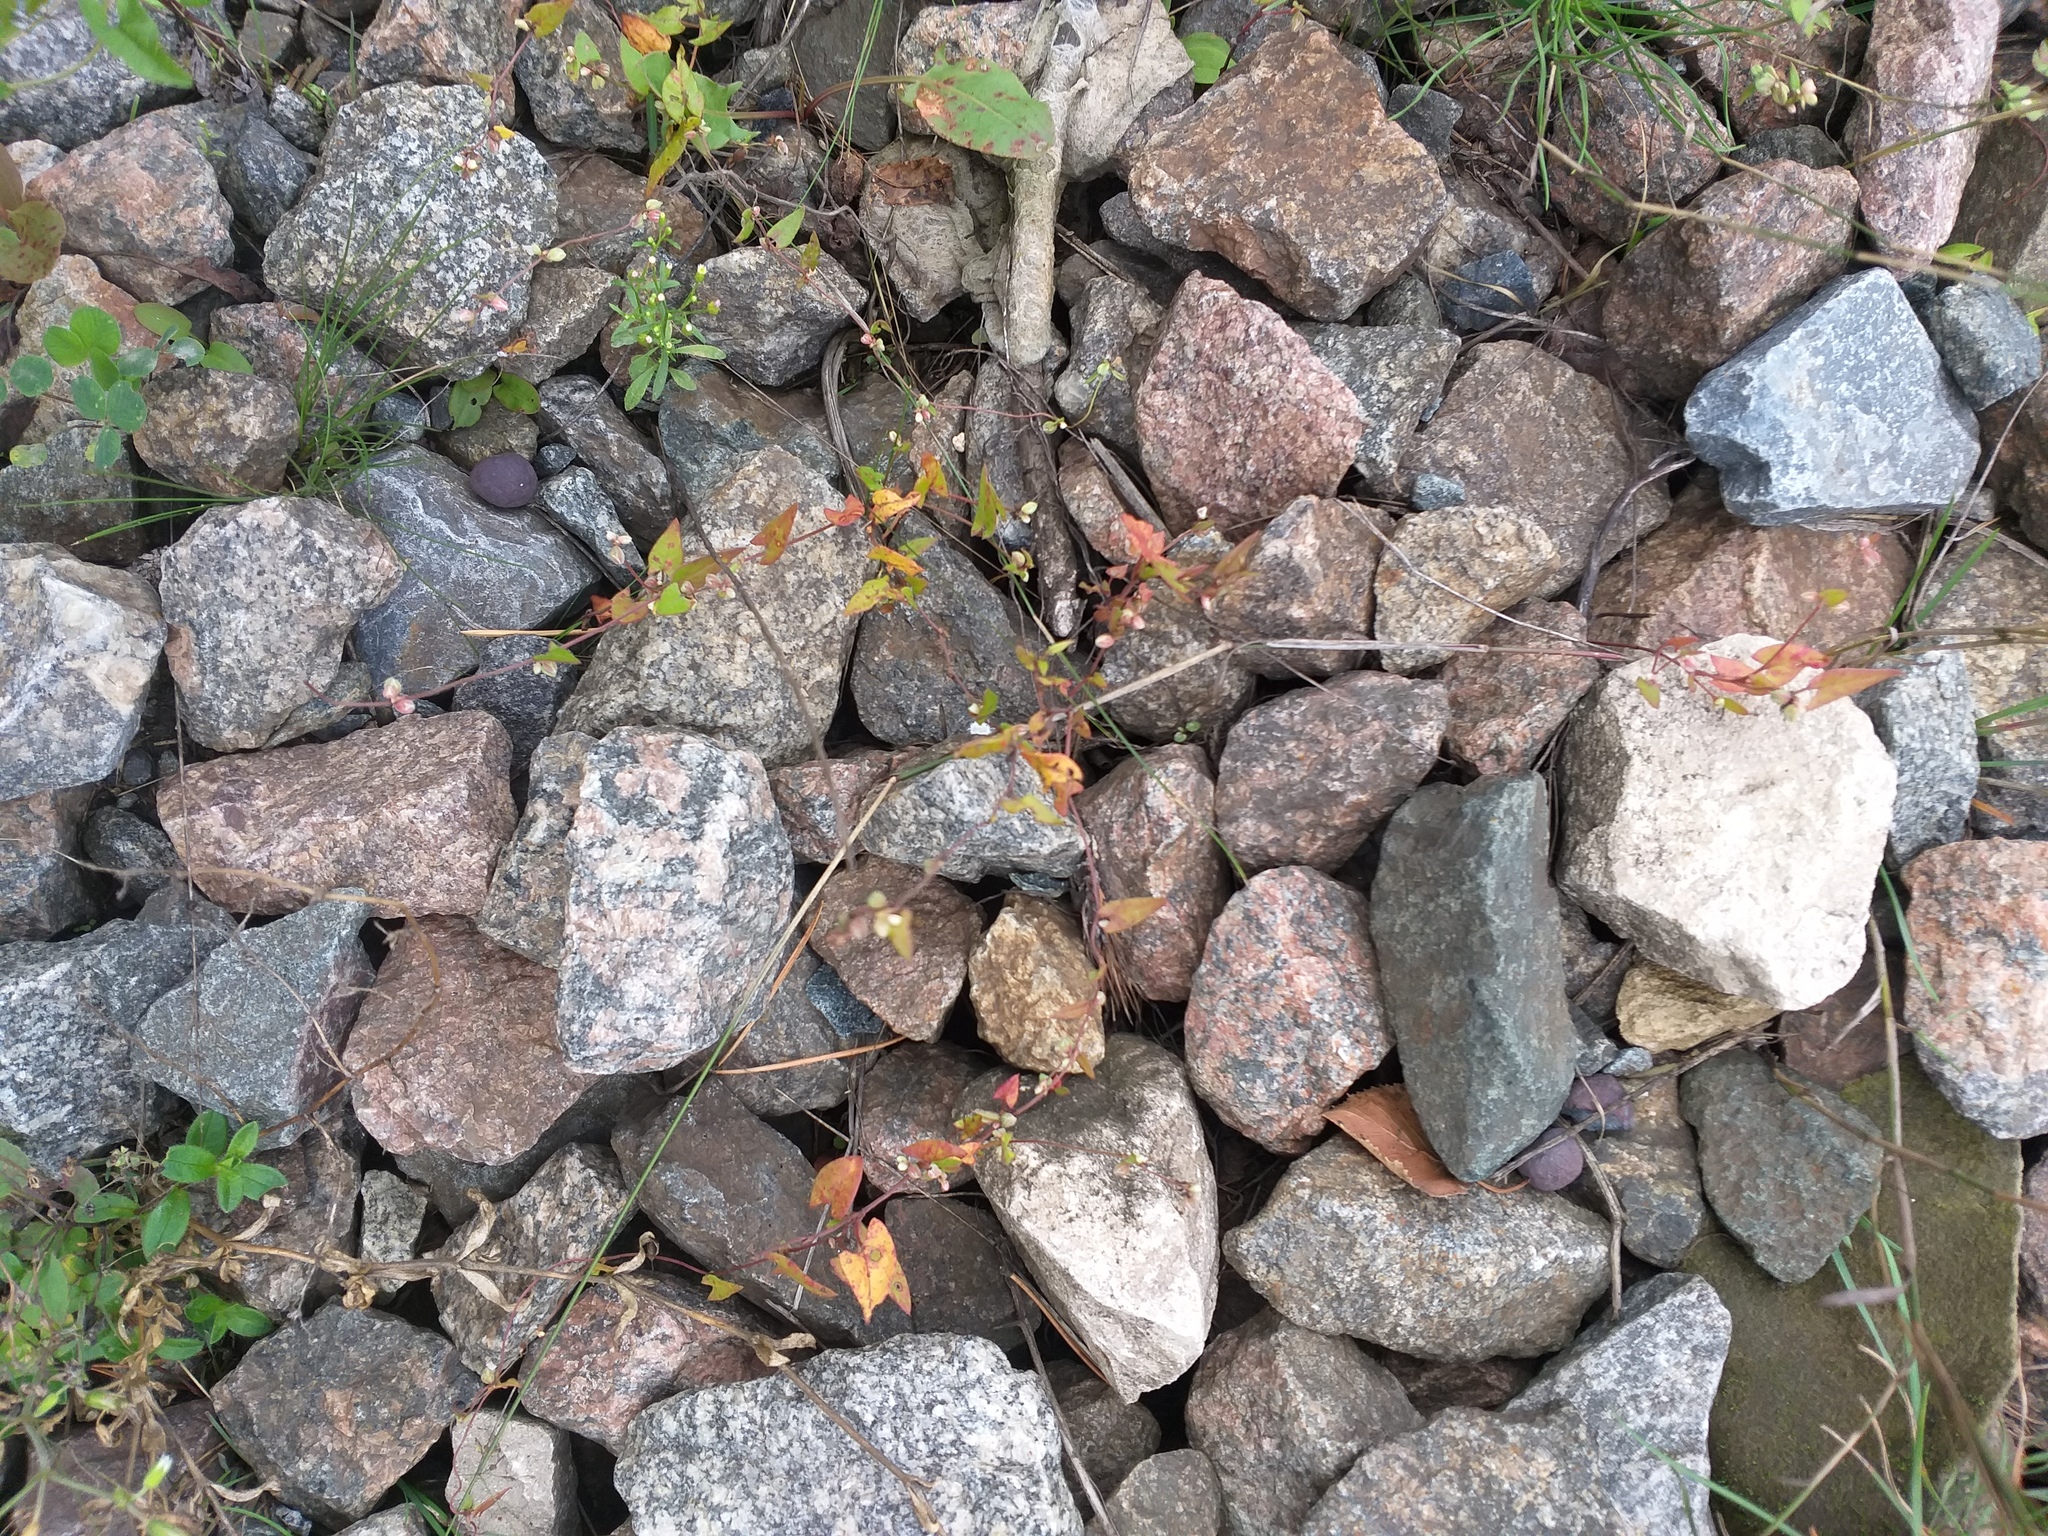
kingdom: Plantae
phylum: Tracheophyta
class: Magnoliopsida
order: Caryophyllales
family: Polygonaceae
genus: Fallopia
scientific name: Fallopia convolvulus
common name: Black bindweed
